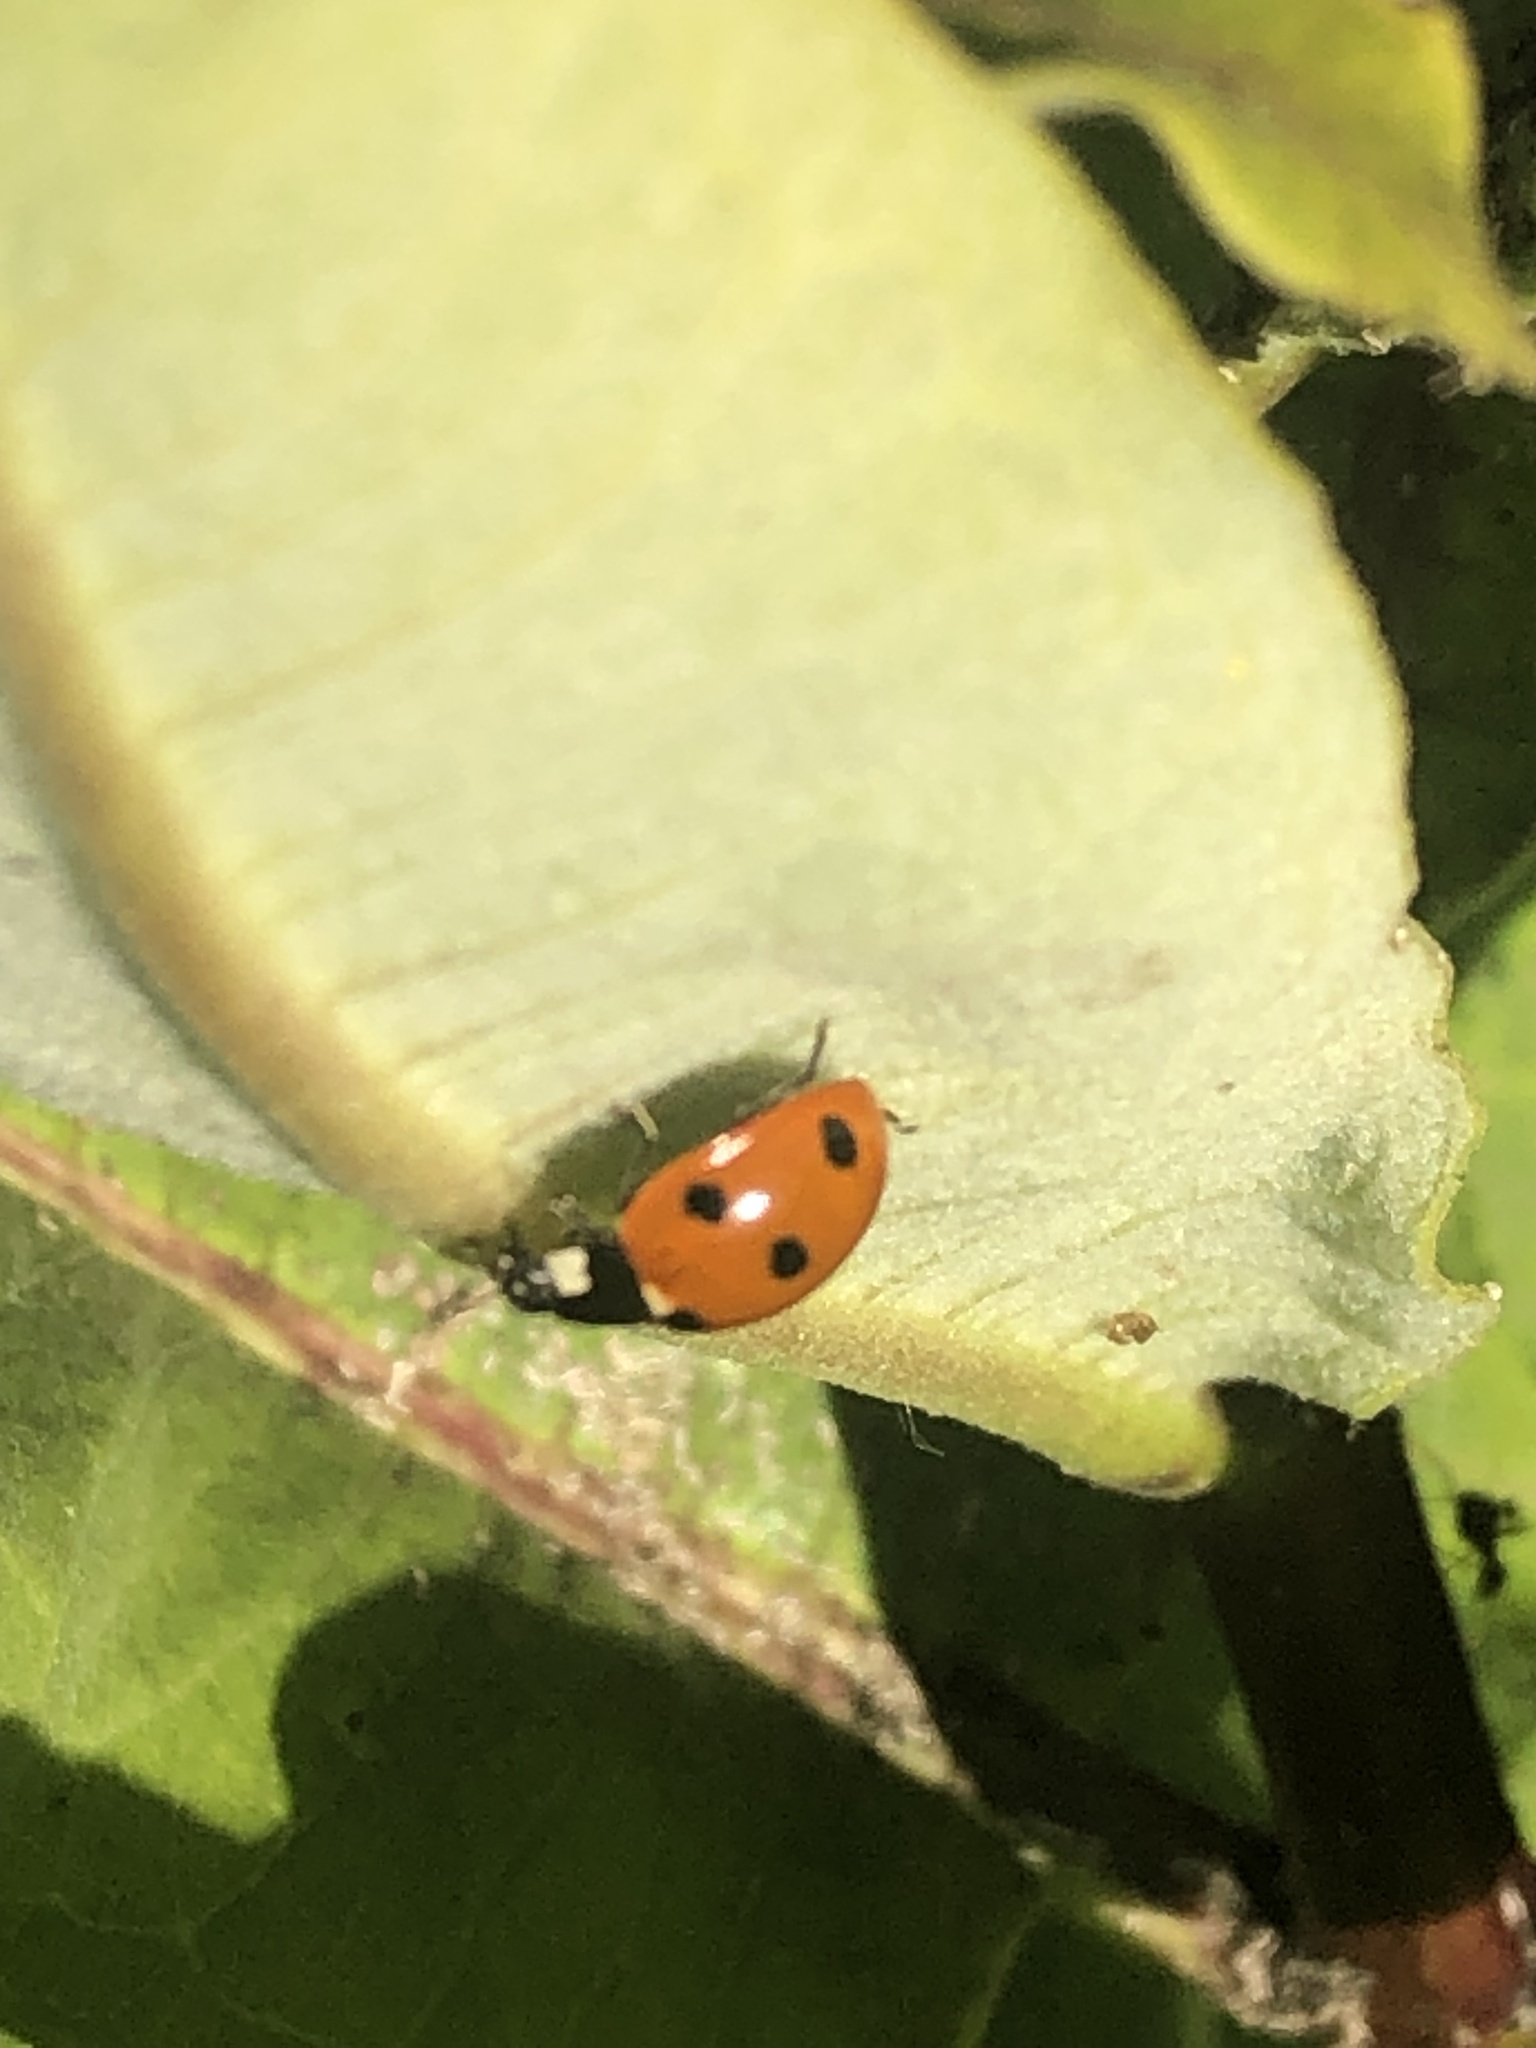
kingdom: Animalia
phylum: Arthropoda
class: Insecta
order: Coleoptera
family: Coccinellidae
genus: Coccinella
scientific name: Coccinella septempunctata
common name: Sevenspotted lady beetle
